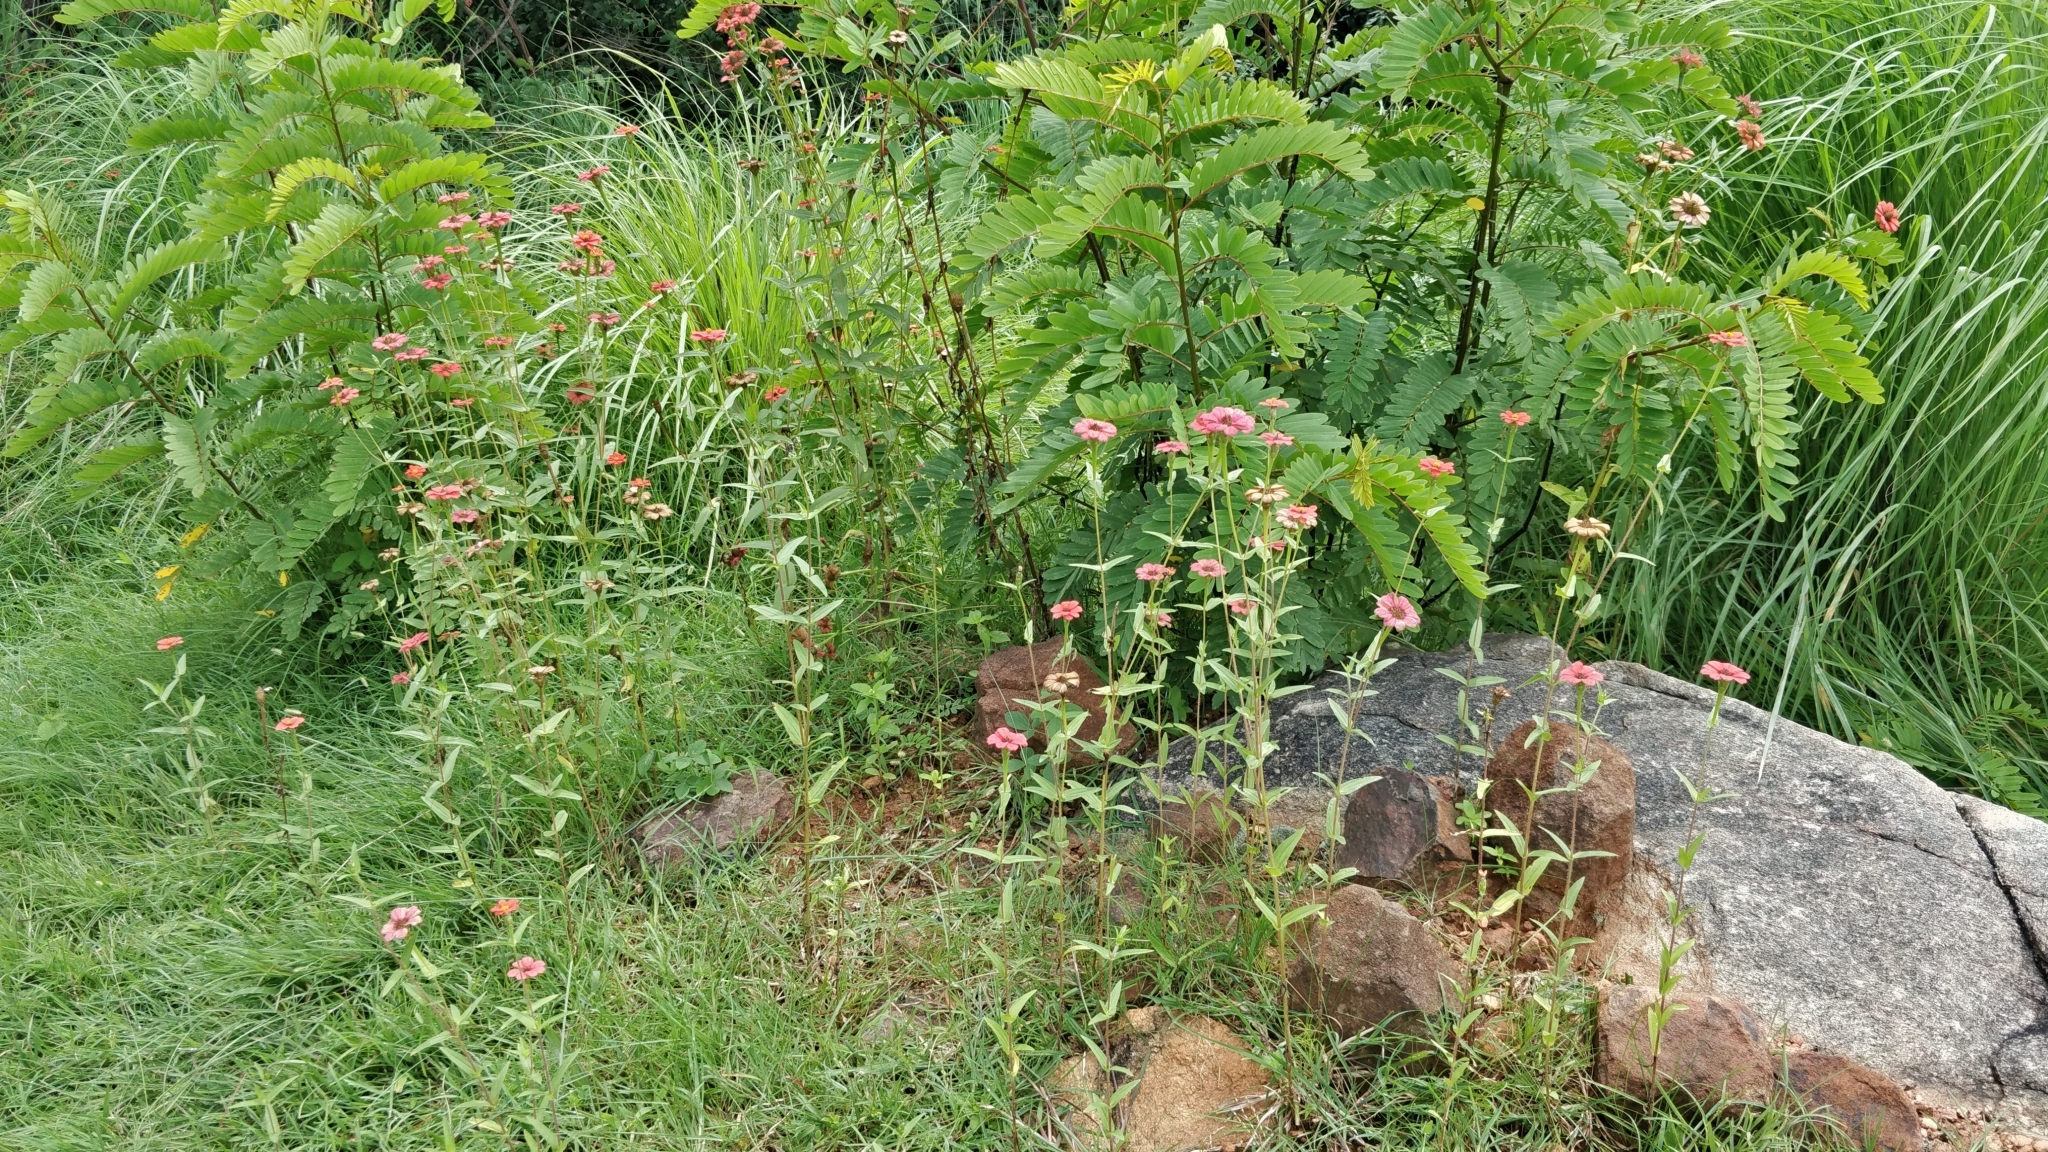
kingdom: Plantae
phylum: Tracheophyta
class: Magnoliopsida
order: Asterales
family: Asteraceae
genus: Zinnia
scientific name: Zinnia peruviana
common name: Peruvian zinnia
